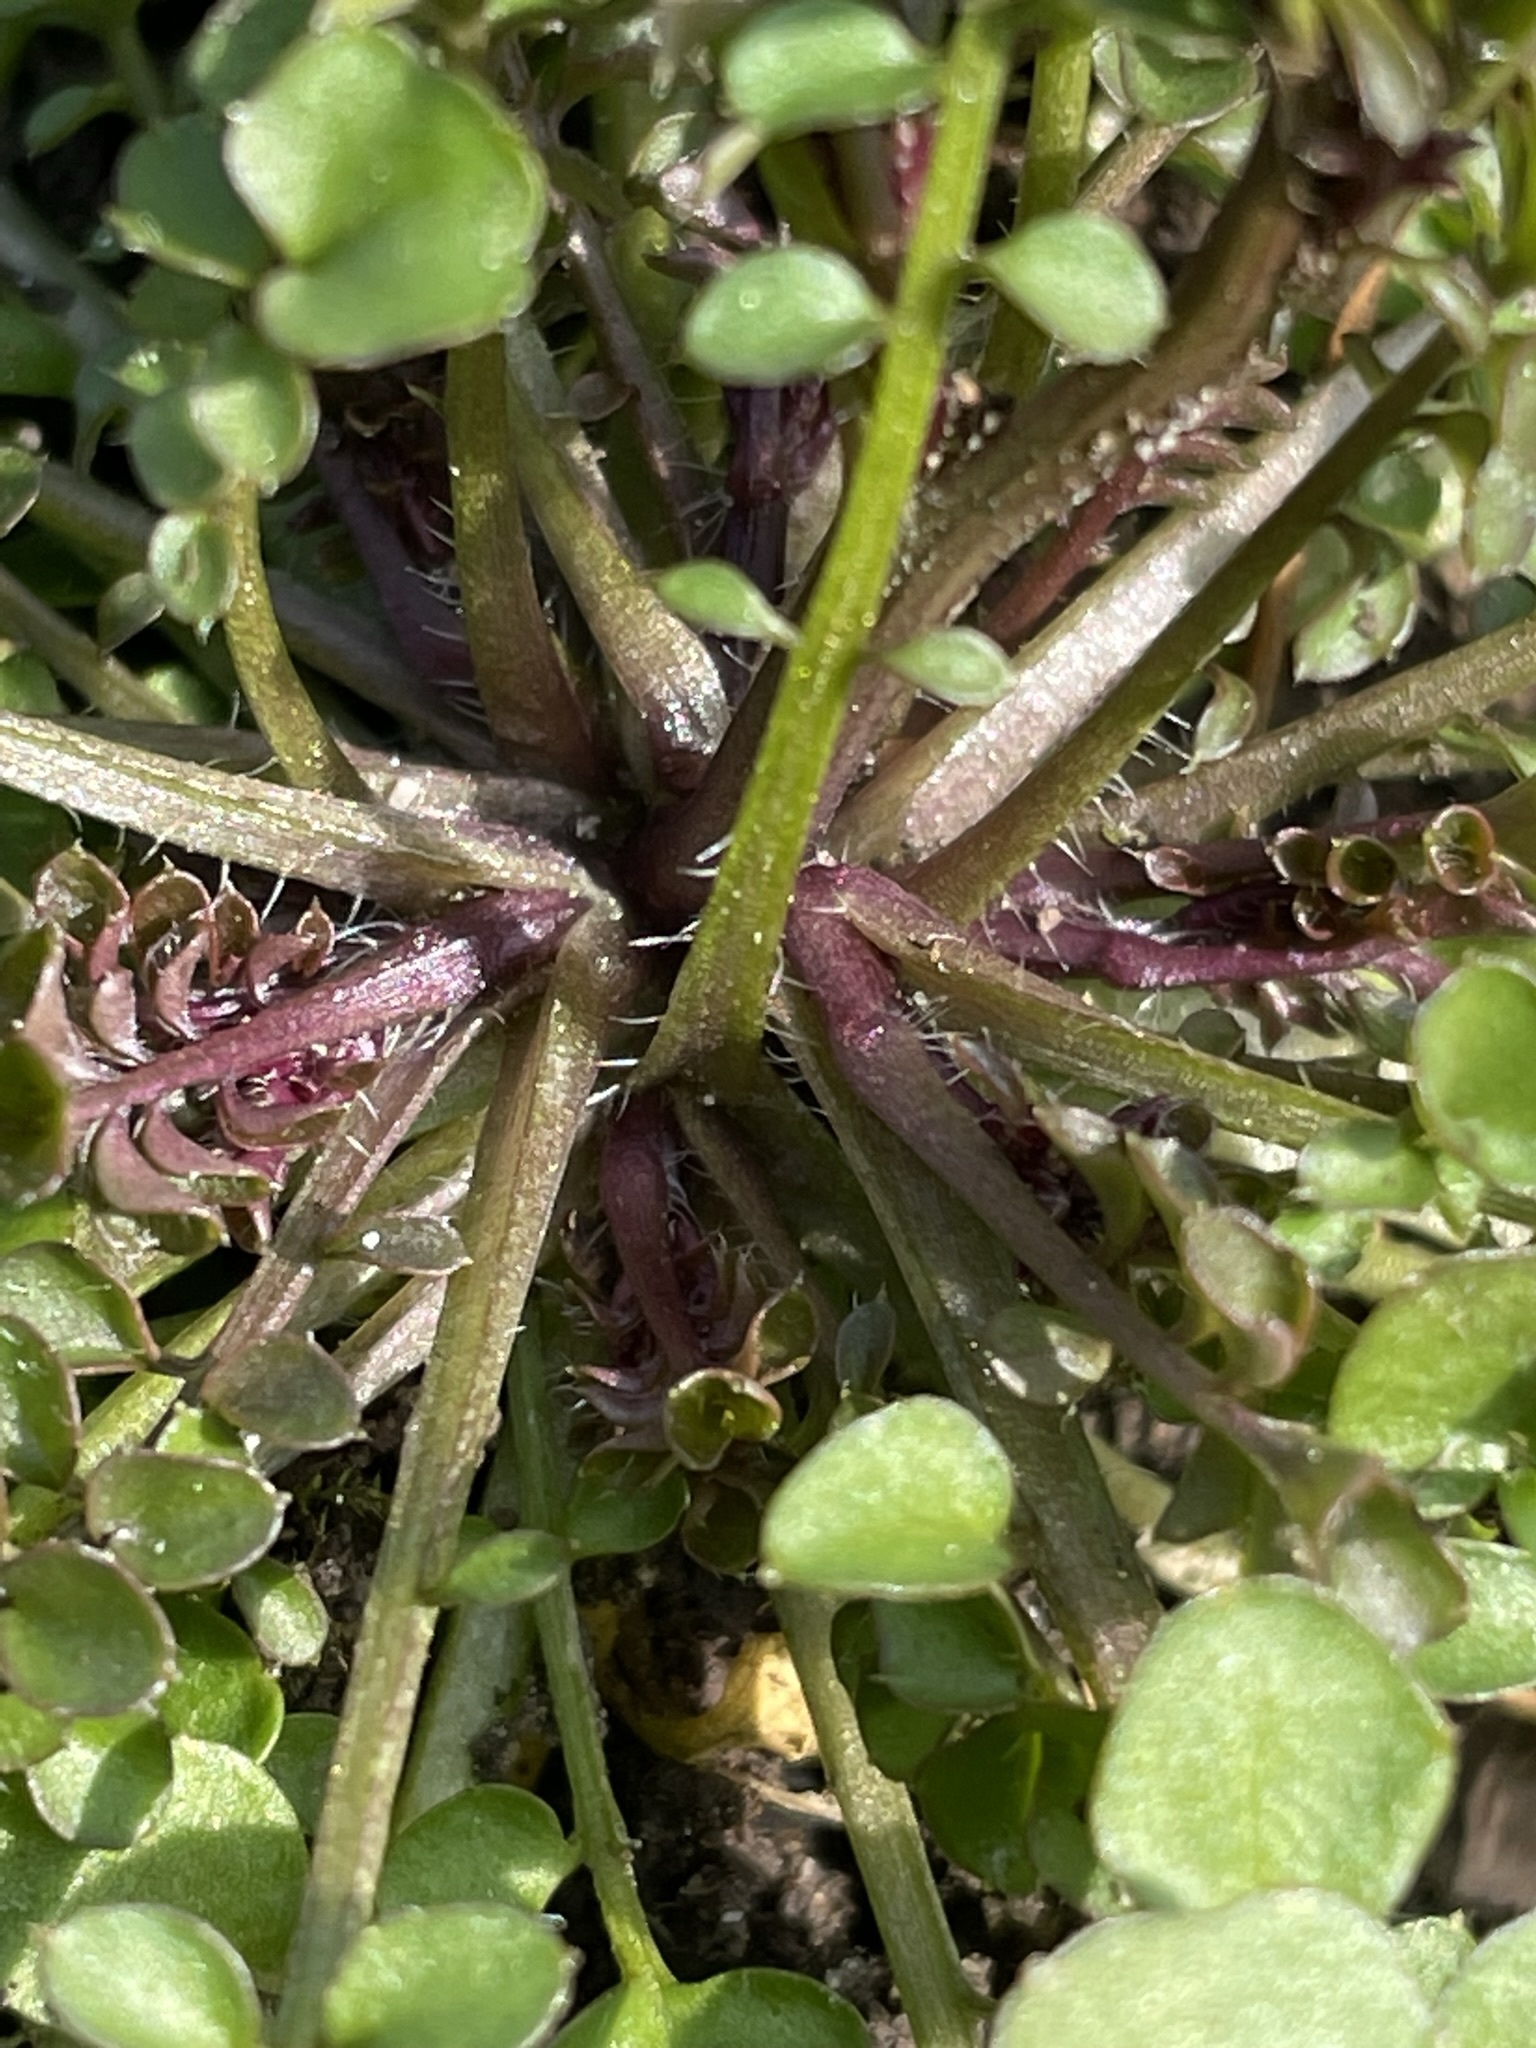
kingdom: Plantae
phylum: Tracheophyta
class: Magnoliopsida
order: Brassicales
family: Brassicaceae
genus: Cardamine
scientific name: Cardamine hirsuta
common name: Hairy bittercress
